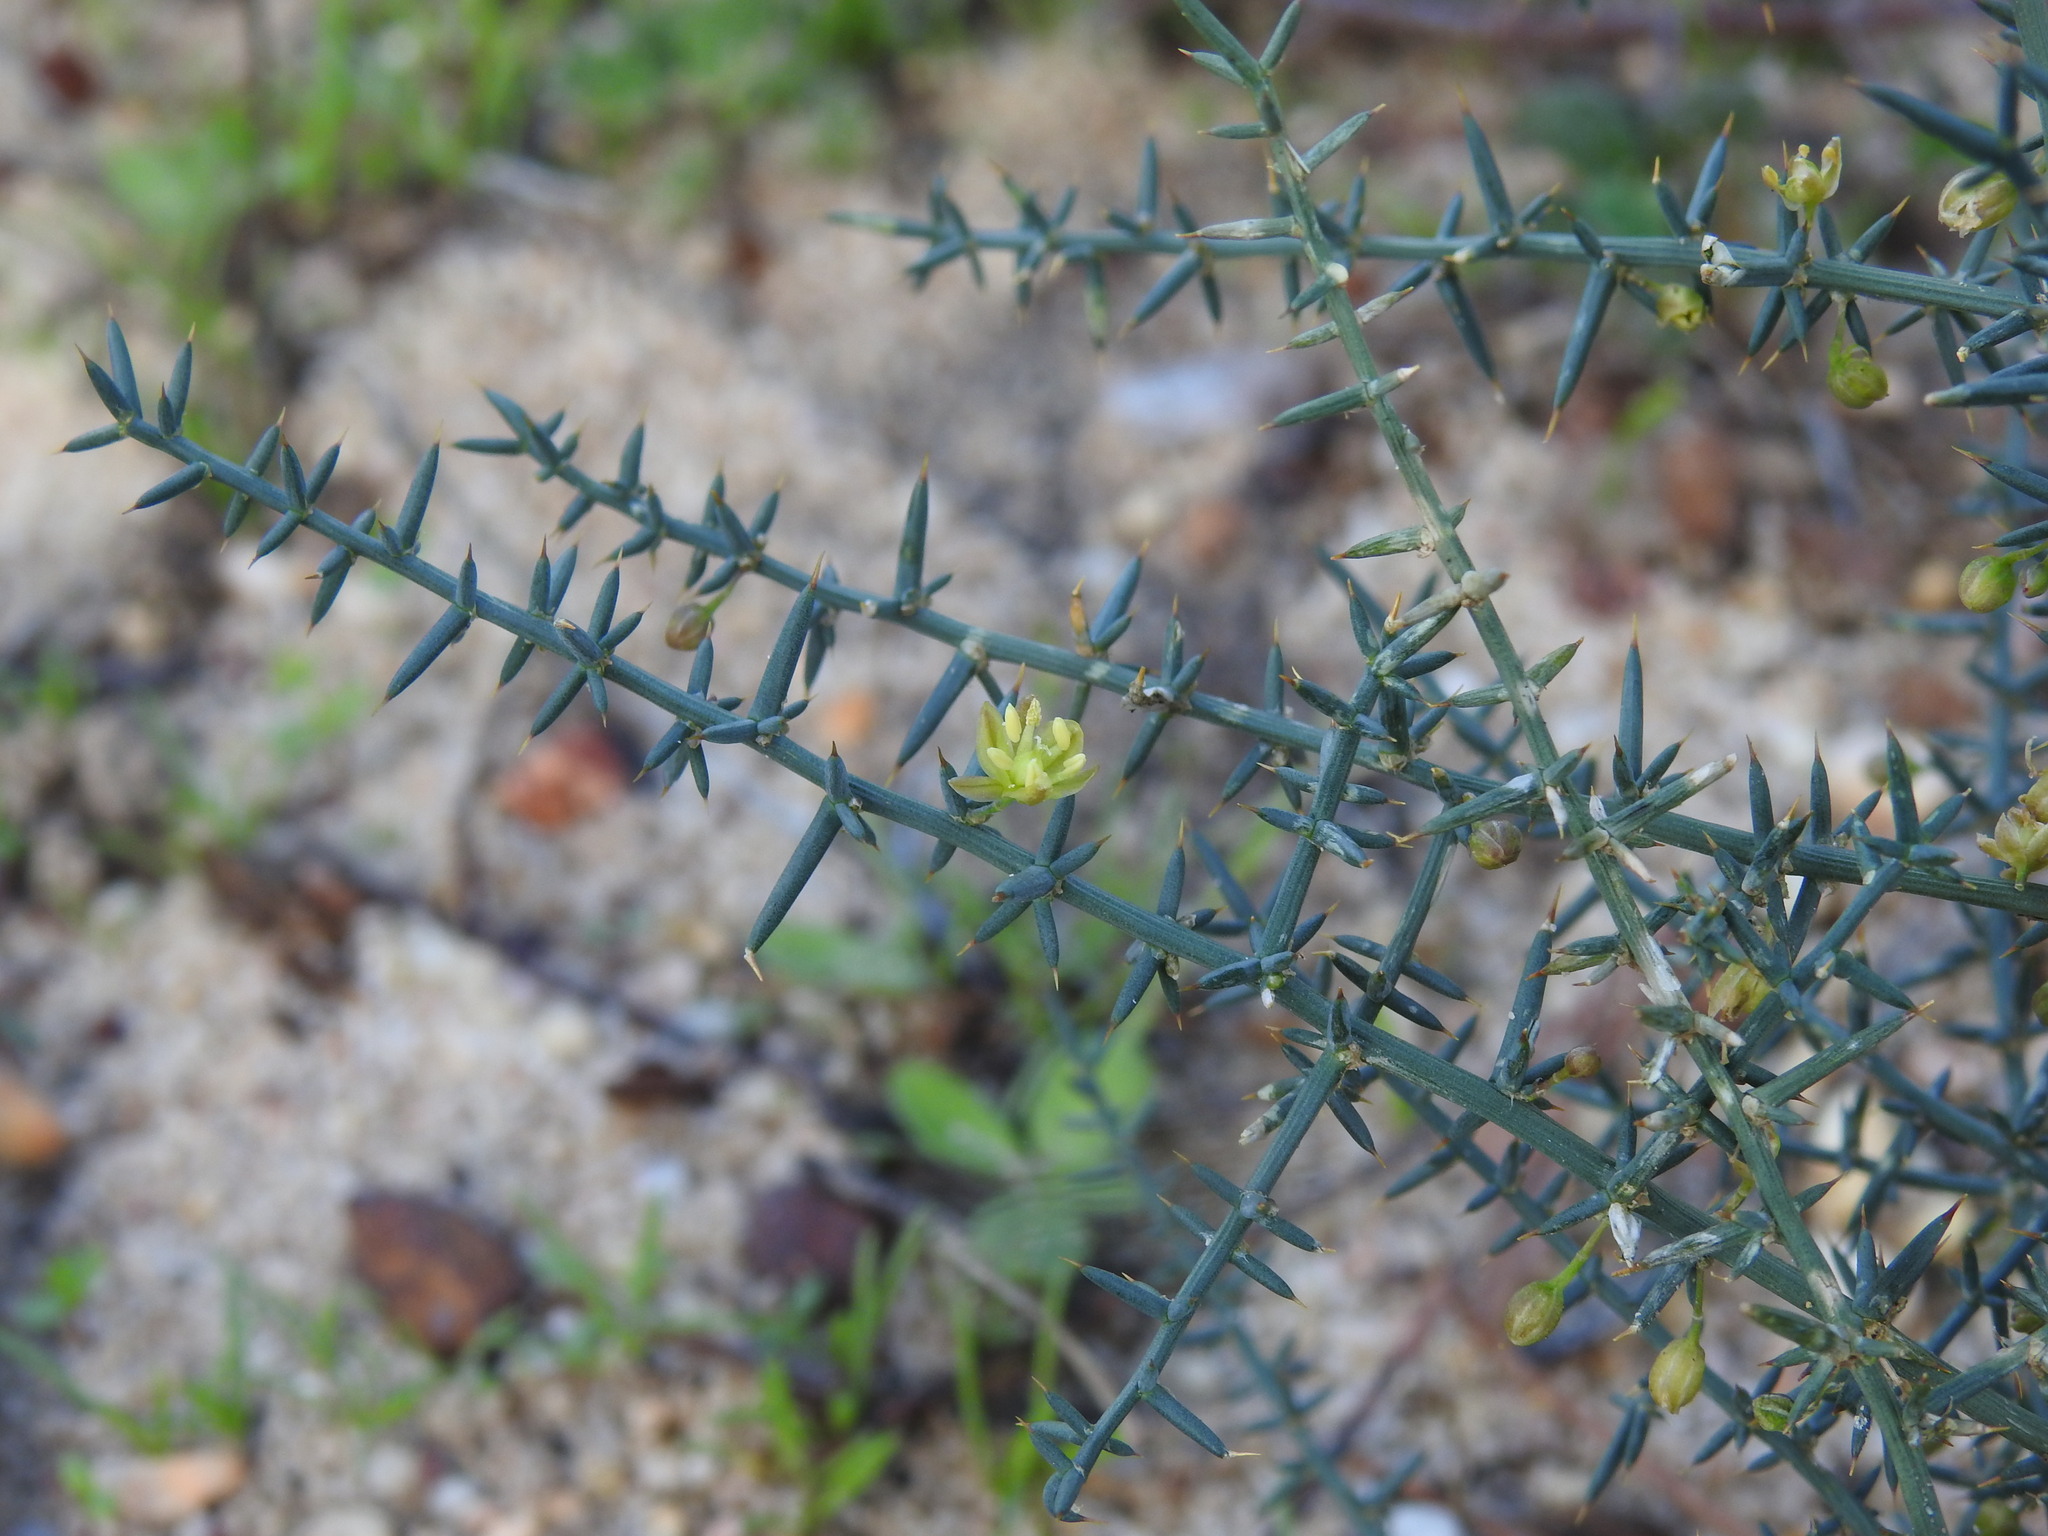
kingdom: Plantae
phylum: Tracheophyta
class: Liliopsida
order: Asparagales
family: Asparagaceae
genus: Asparagus
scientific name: Asparagus aphyllus
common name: Mediterranean asparagus
